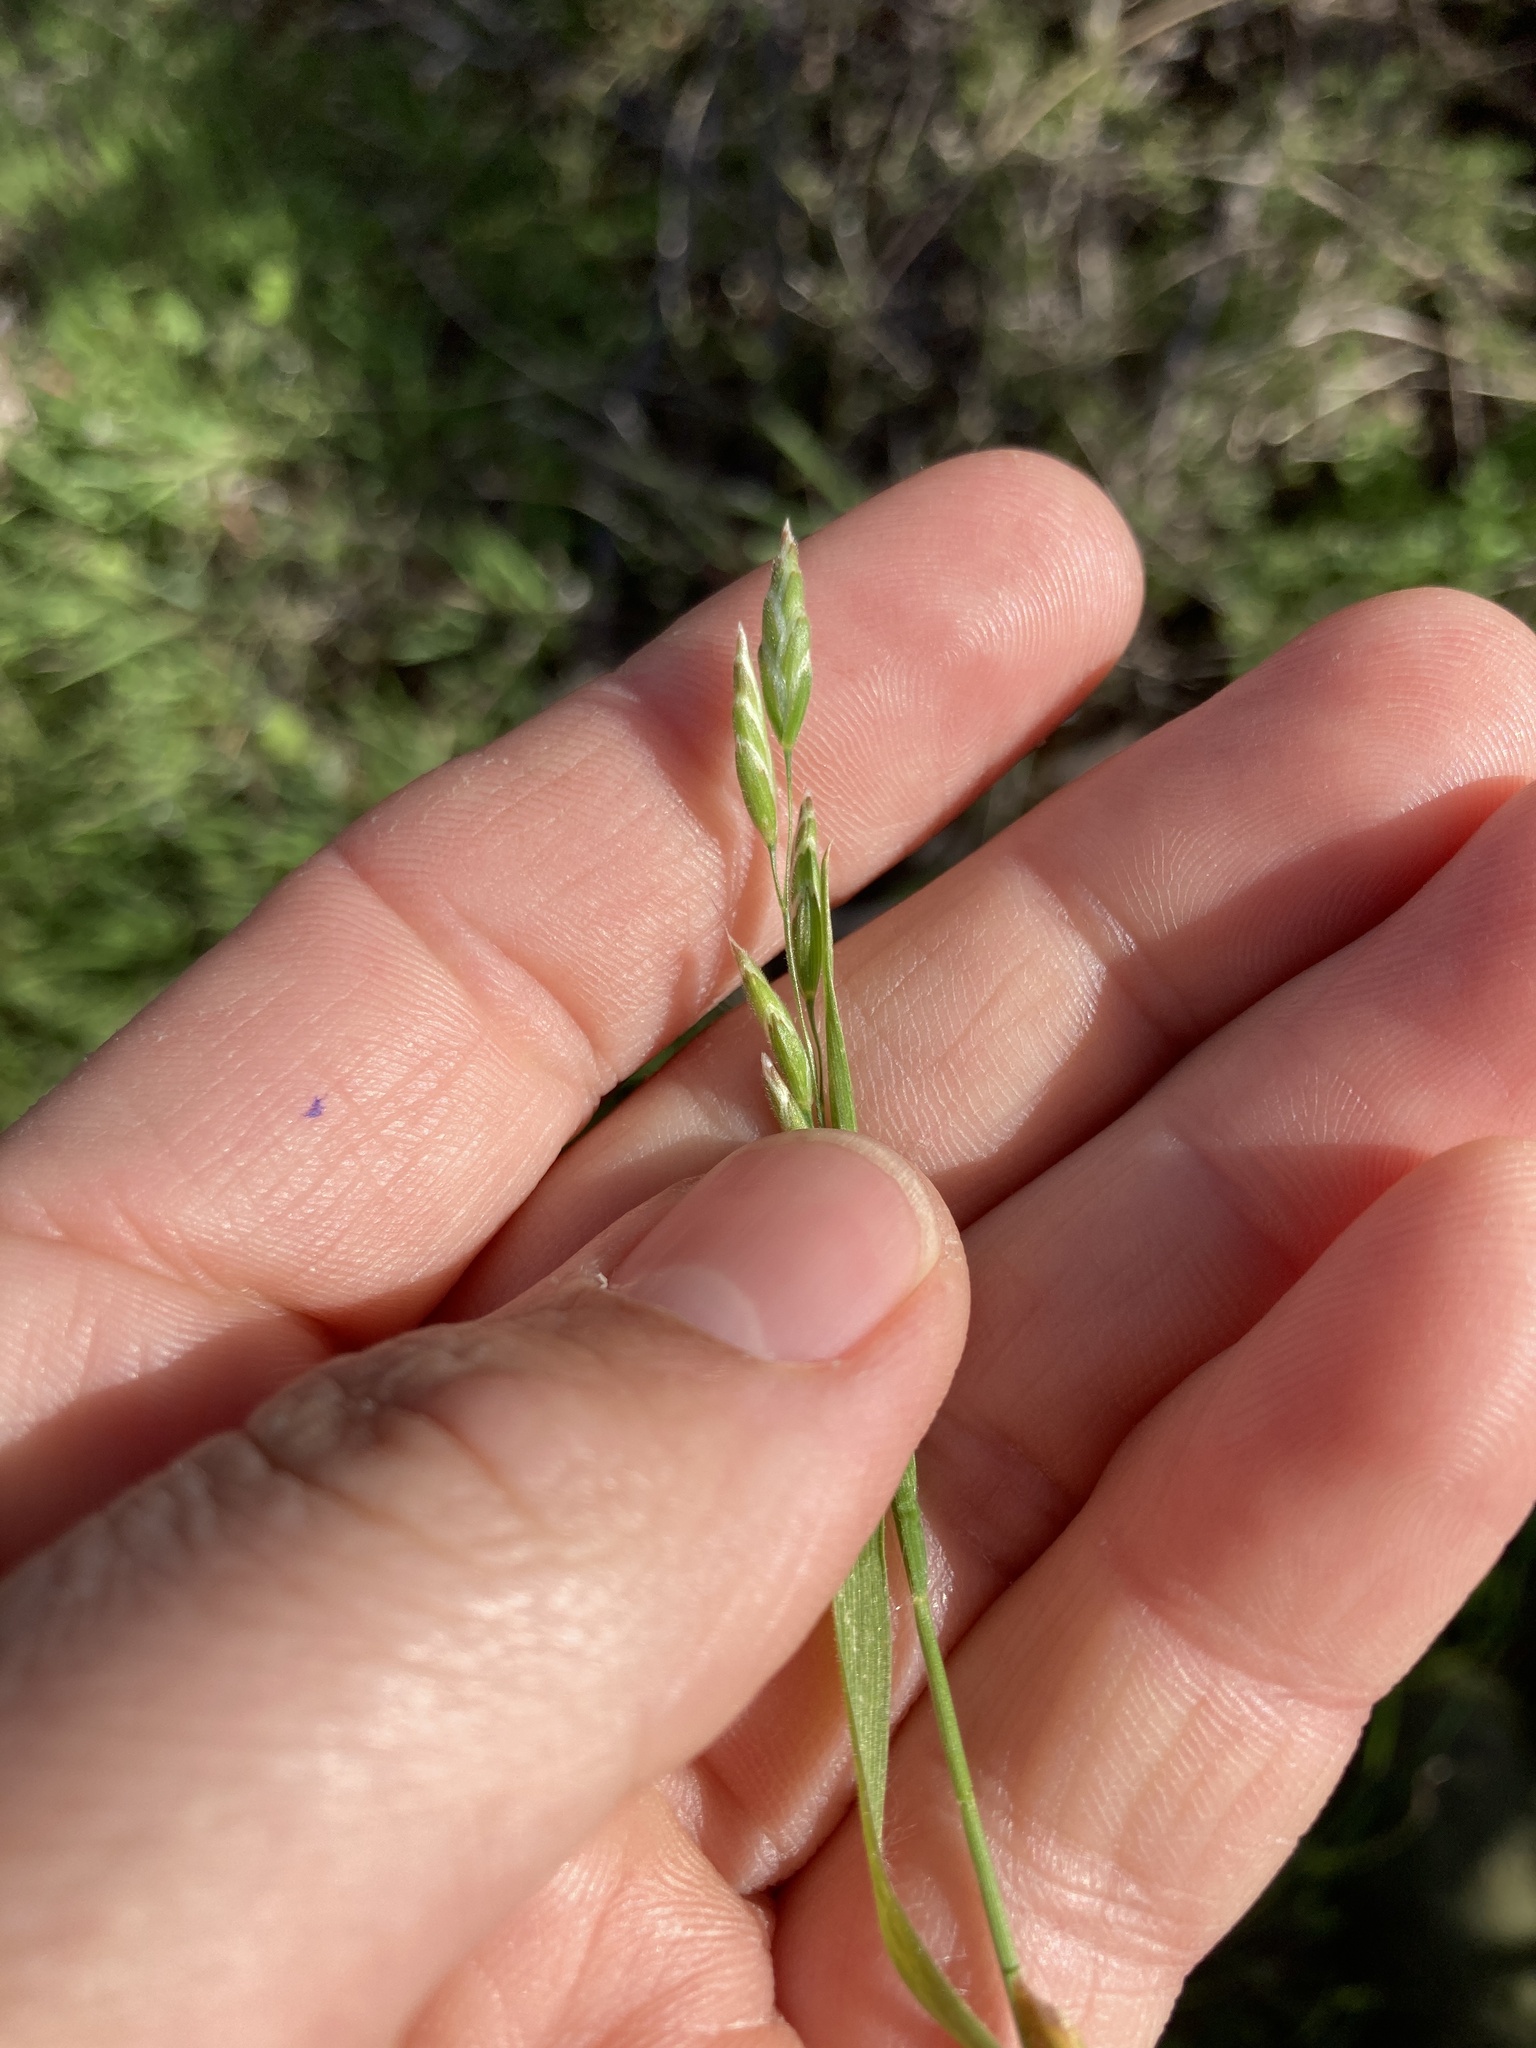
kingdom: Plantae
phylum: Tracheophyta
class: Liliopsida
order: Poales
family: Poaceae
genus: Bromus
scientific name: Bromus hordeaceus
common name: Soft brome
